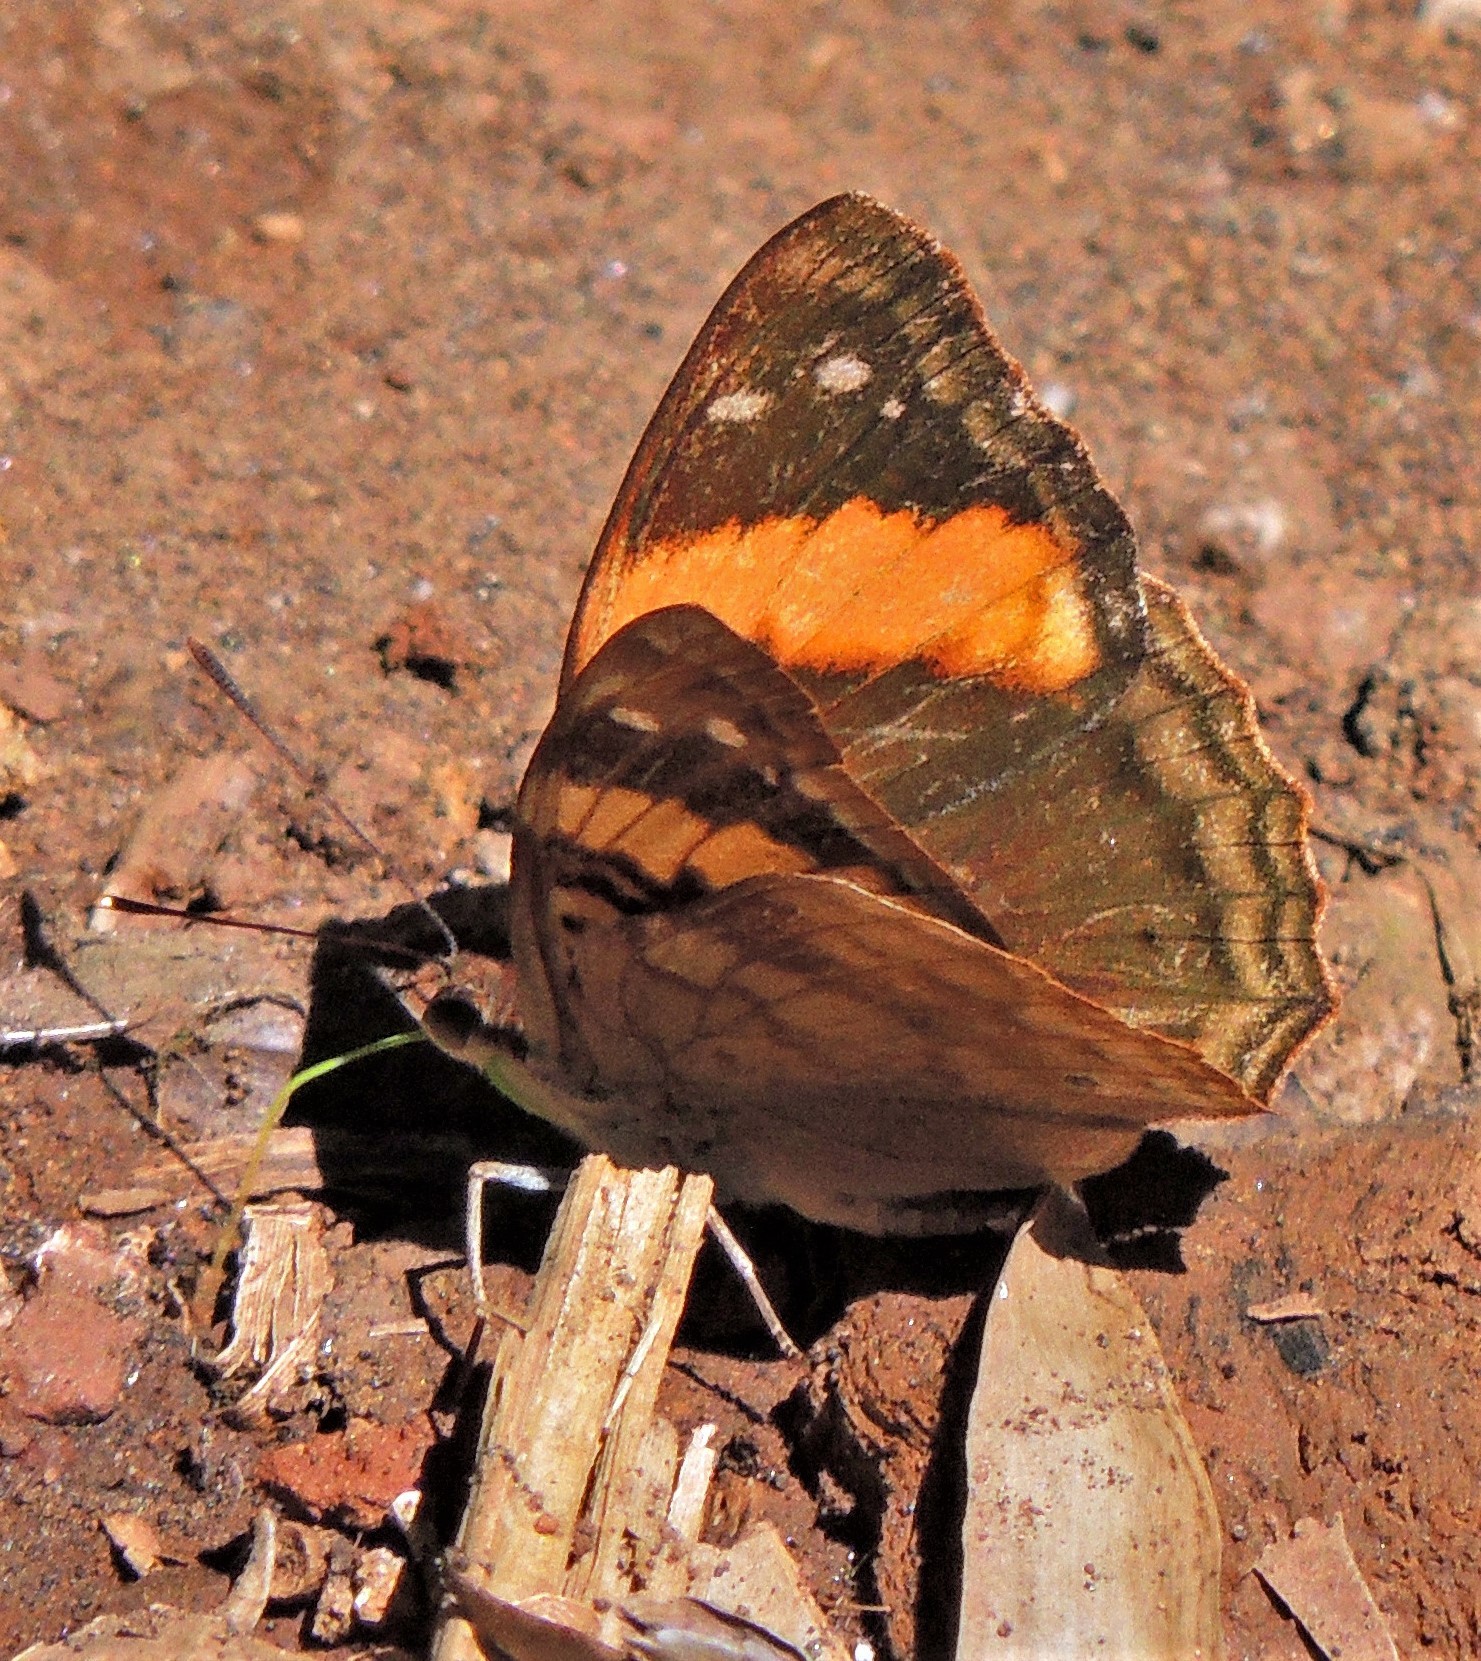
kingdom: Animalia
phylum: Arthropoda
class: Insecta
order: Lepidoptera
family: Nymphalidae
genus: Doxocopa
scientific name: Doxocopa agathina
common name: Agathina emperor
